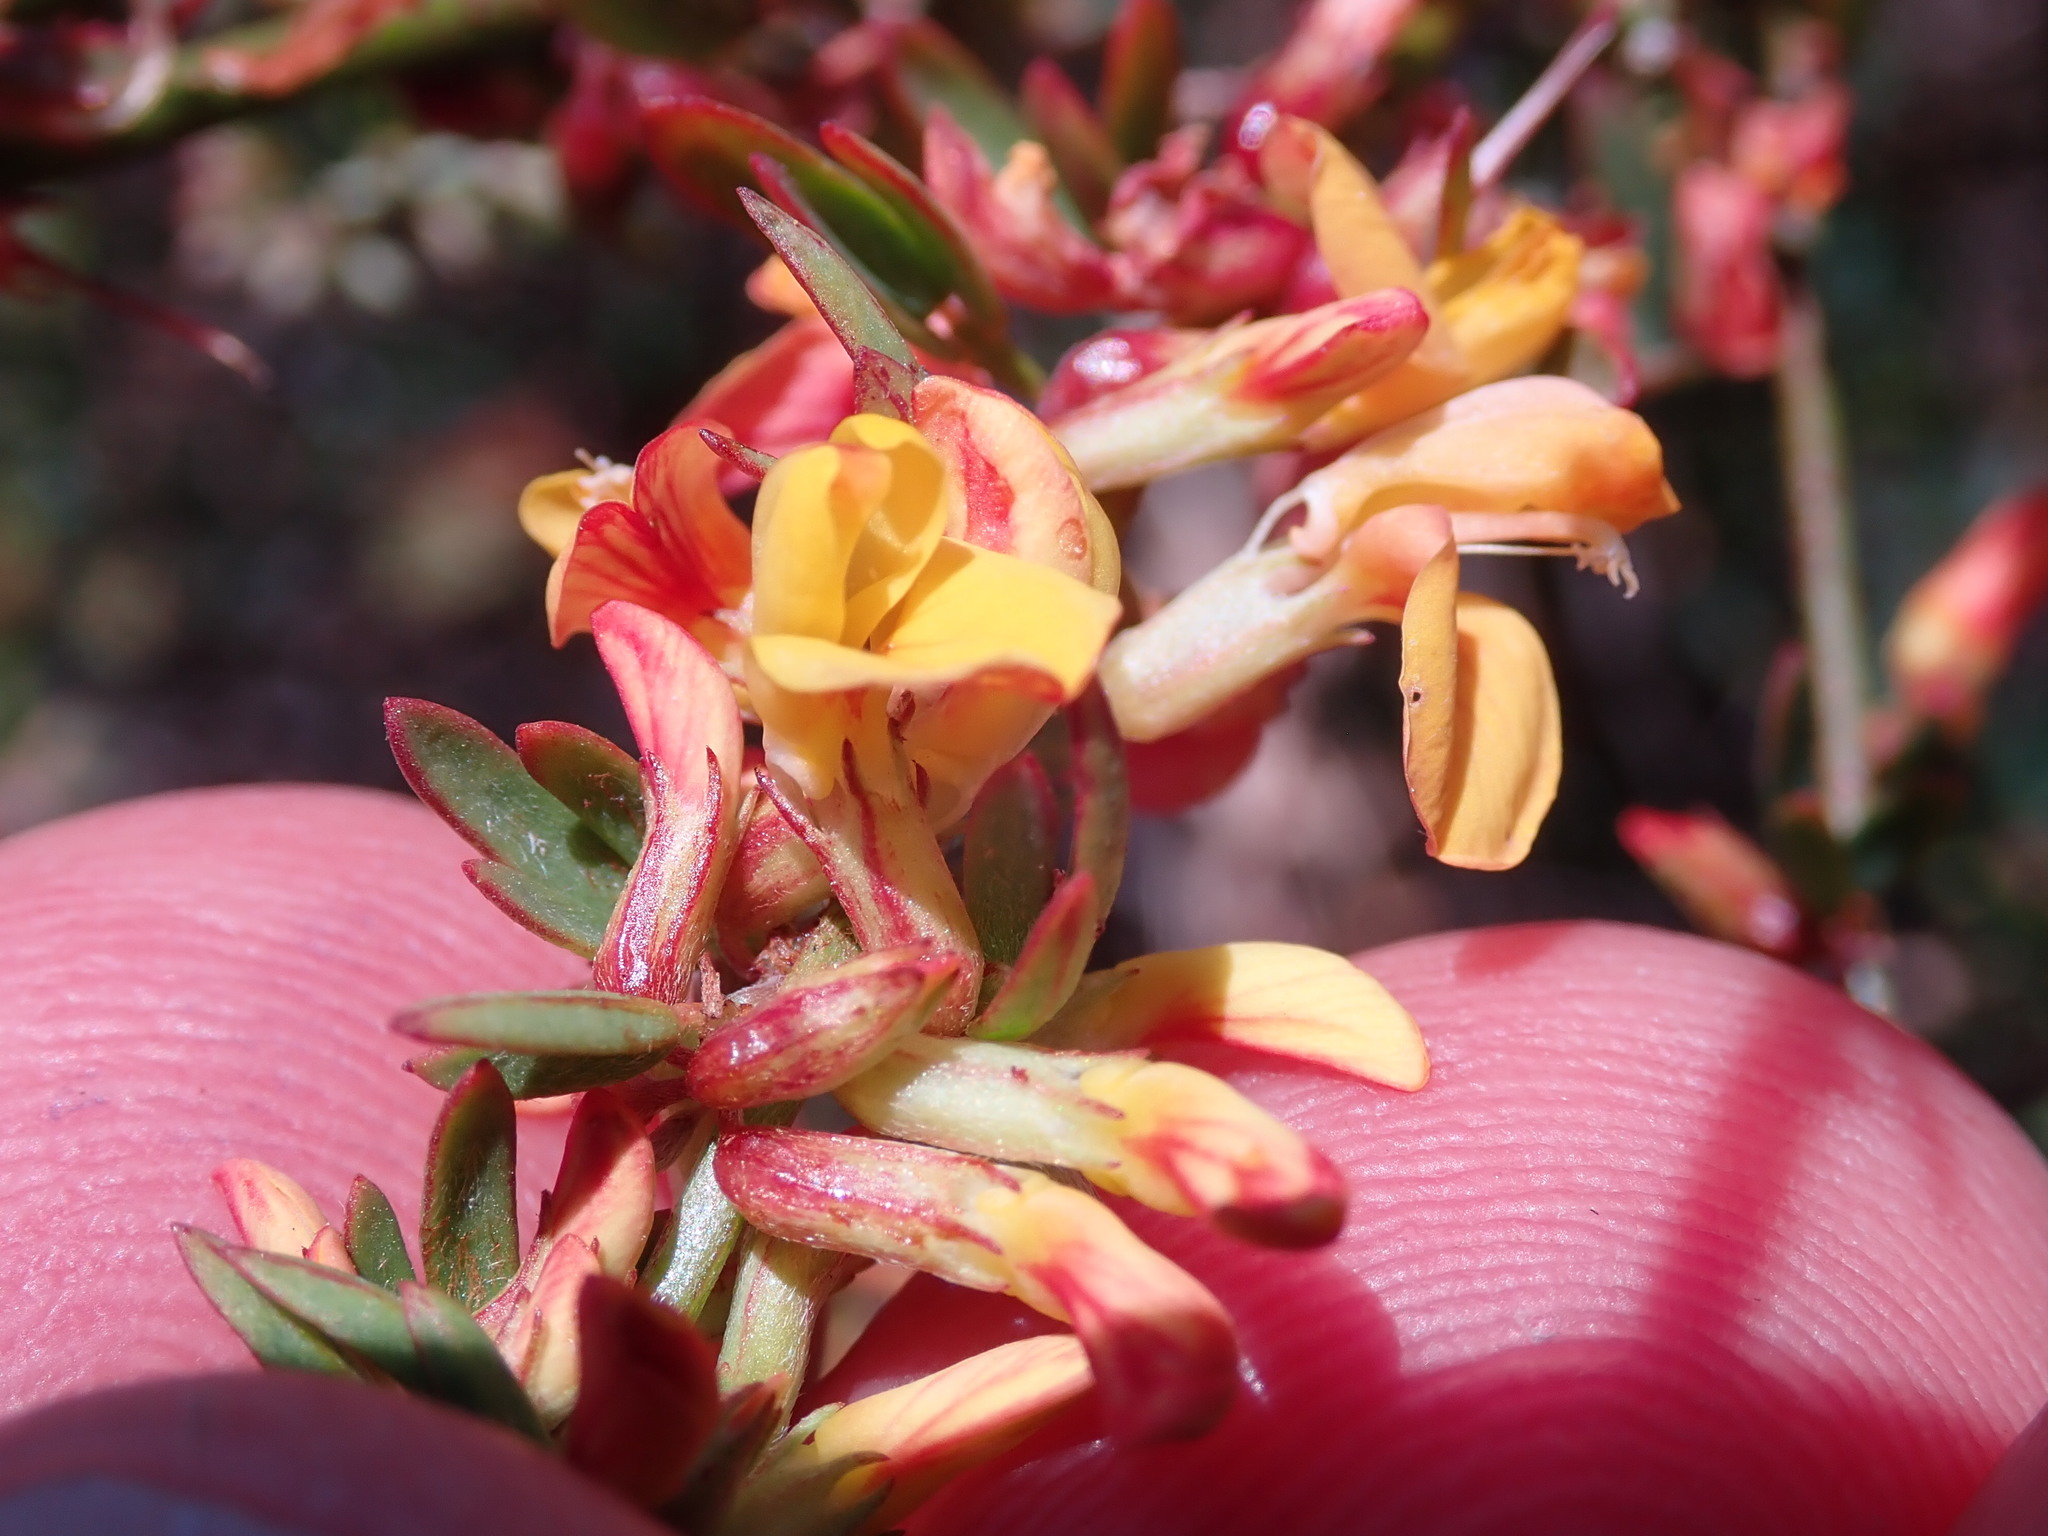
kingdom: Plantae
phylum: Tracheophyta
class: Magnoliopsida
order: Fabales
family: Fabaceae
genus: Acmispon
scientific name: Acmispon glaber
